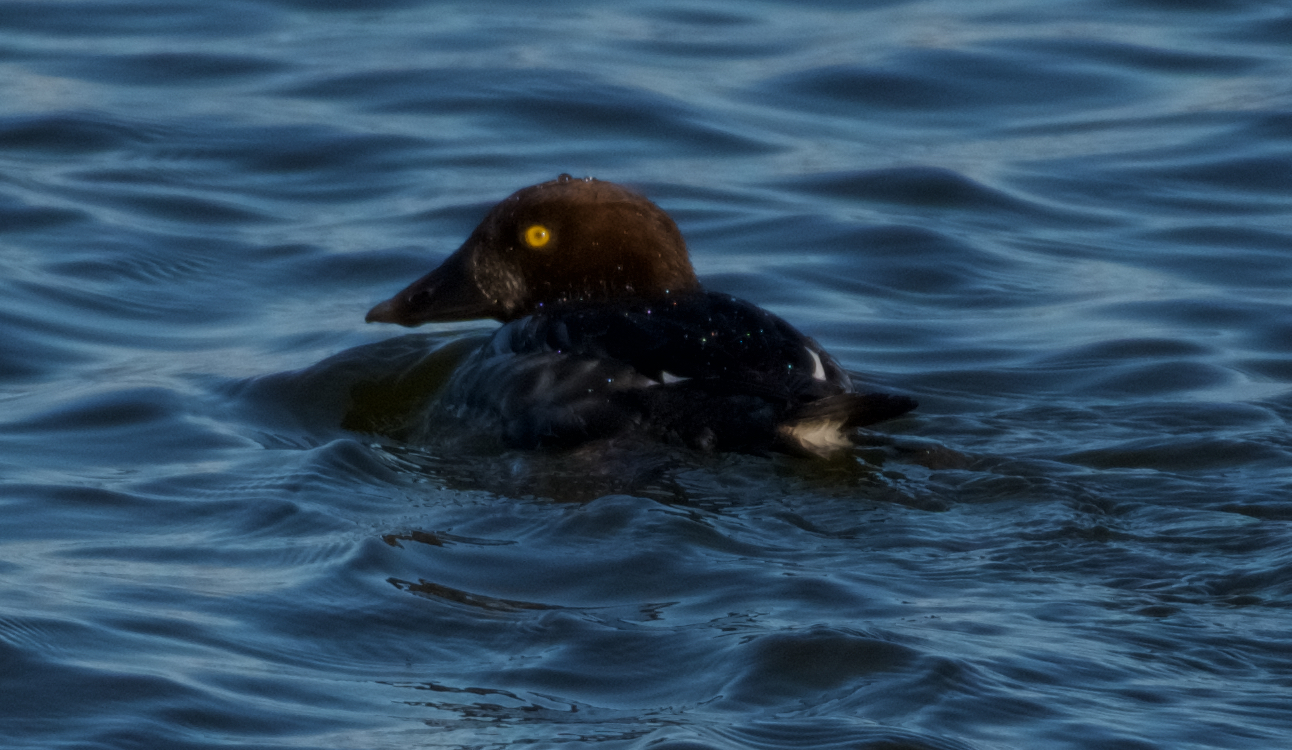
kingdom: Animalia
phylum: Chordata
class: Aves
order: Anseriformes
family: Anatidae
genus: Bucephala
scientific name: Bucephala clangula
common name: Common goldeneye
